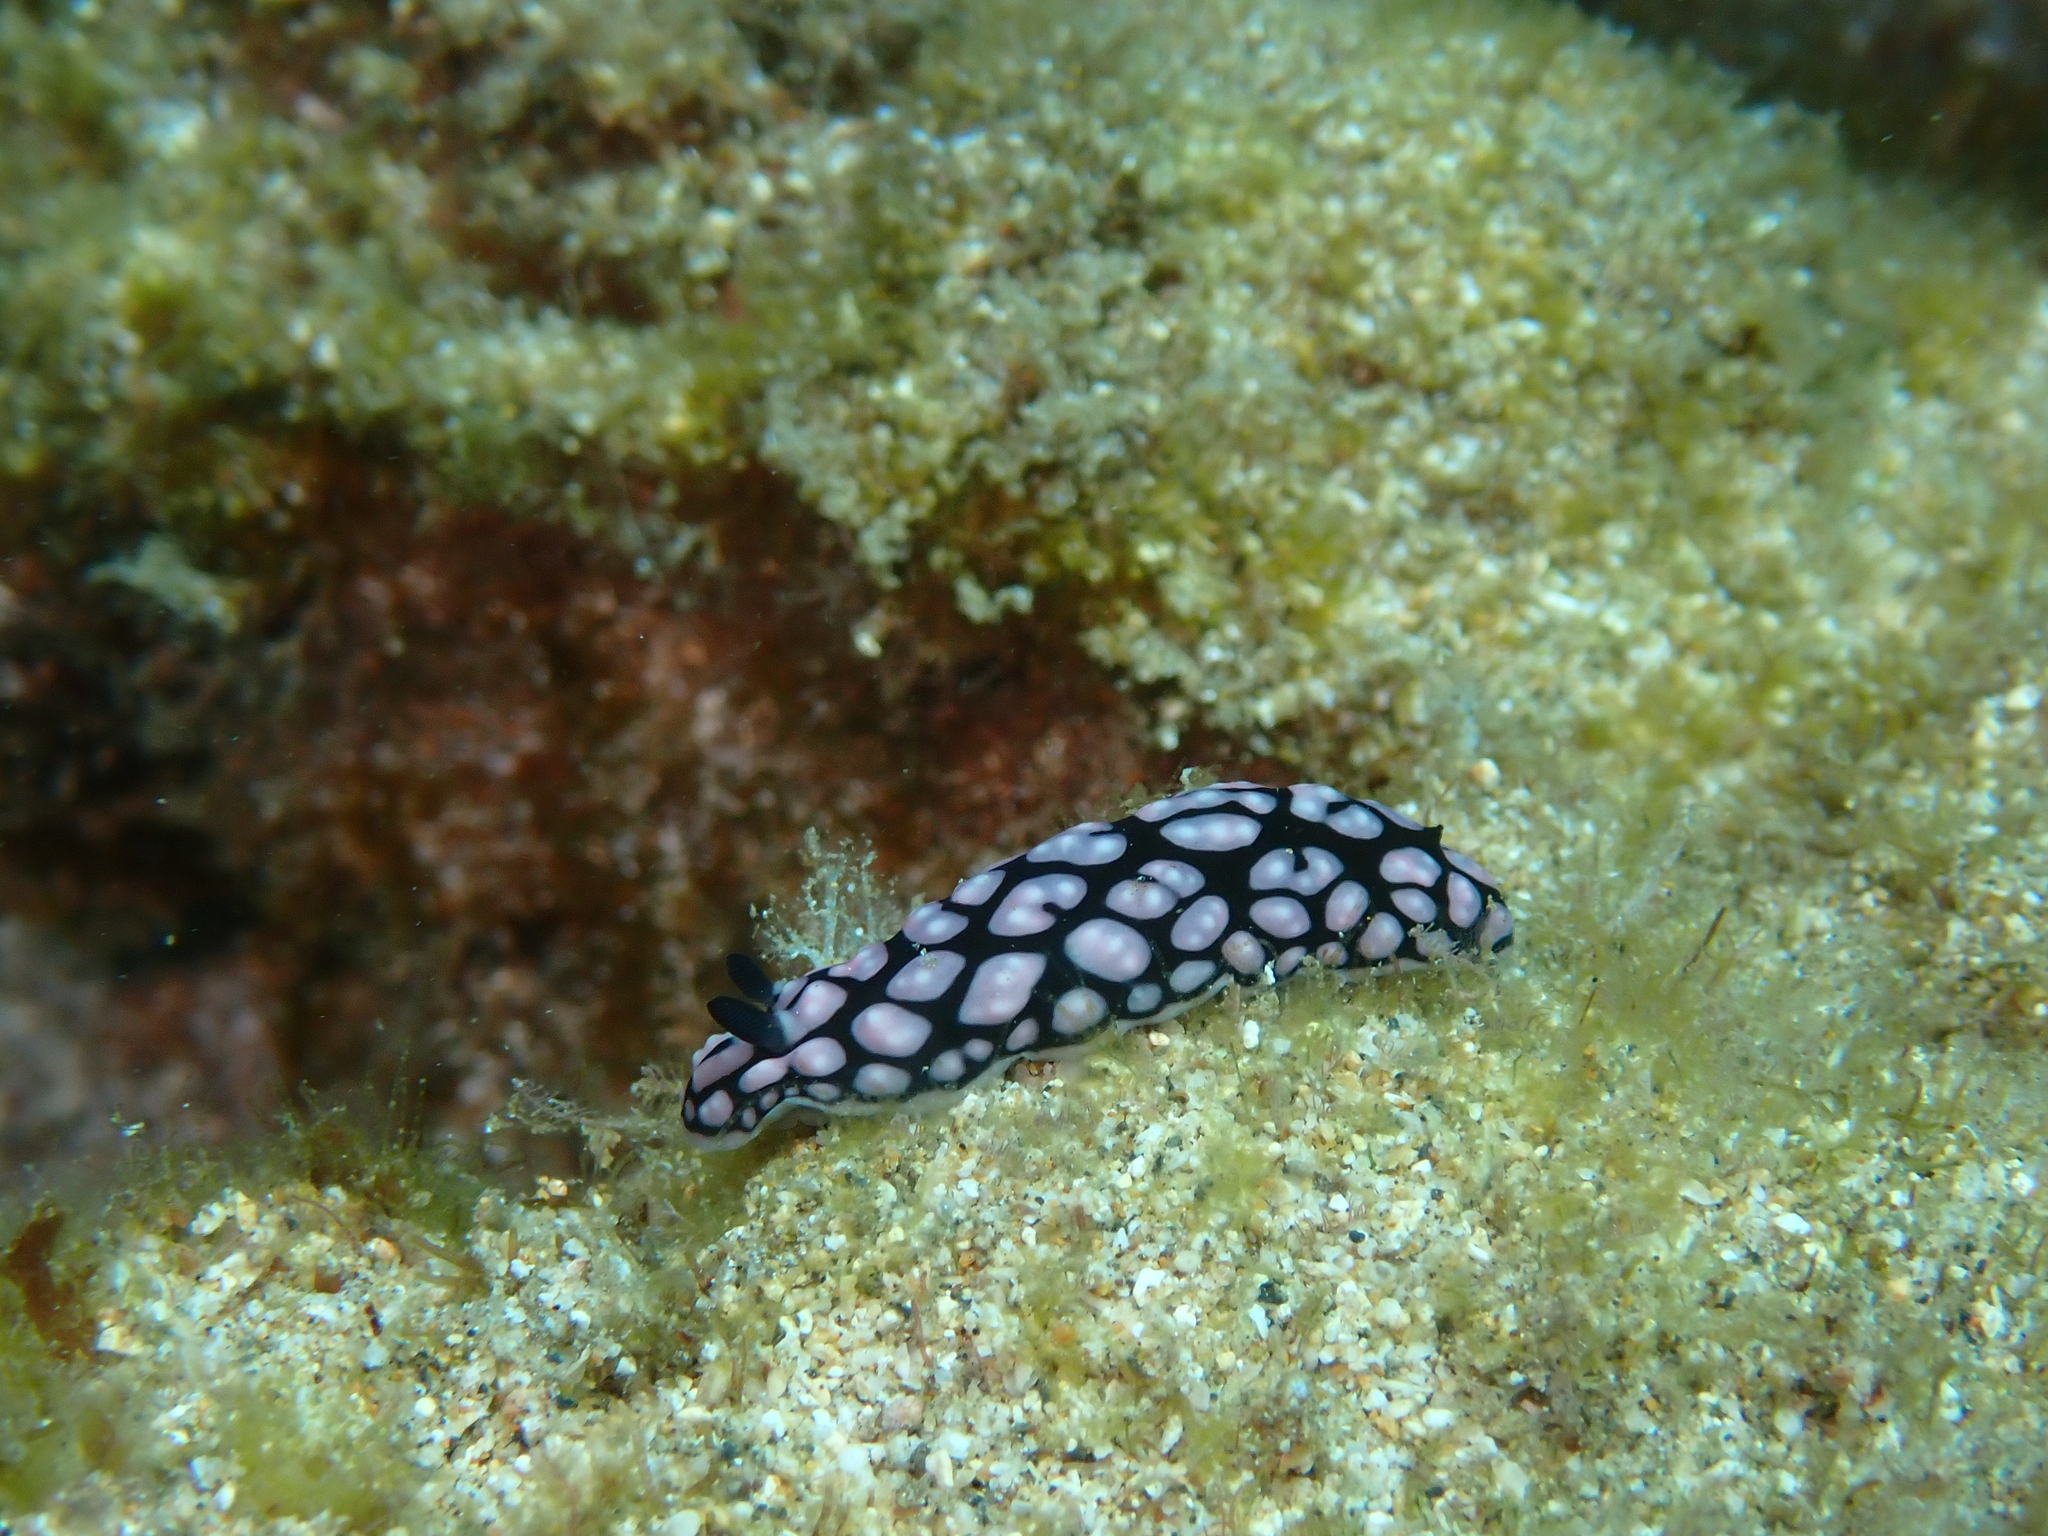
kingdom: Animalia
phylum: Mollusca
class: Gastropoda
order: Nudibranchia
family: Phyllidiidae
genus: Phyllidiella
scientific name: Phyllidiella pustulosa
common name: Pustular phyllidia
